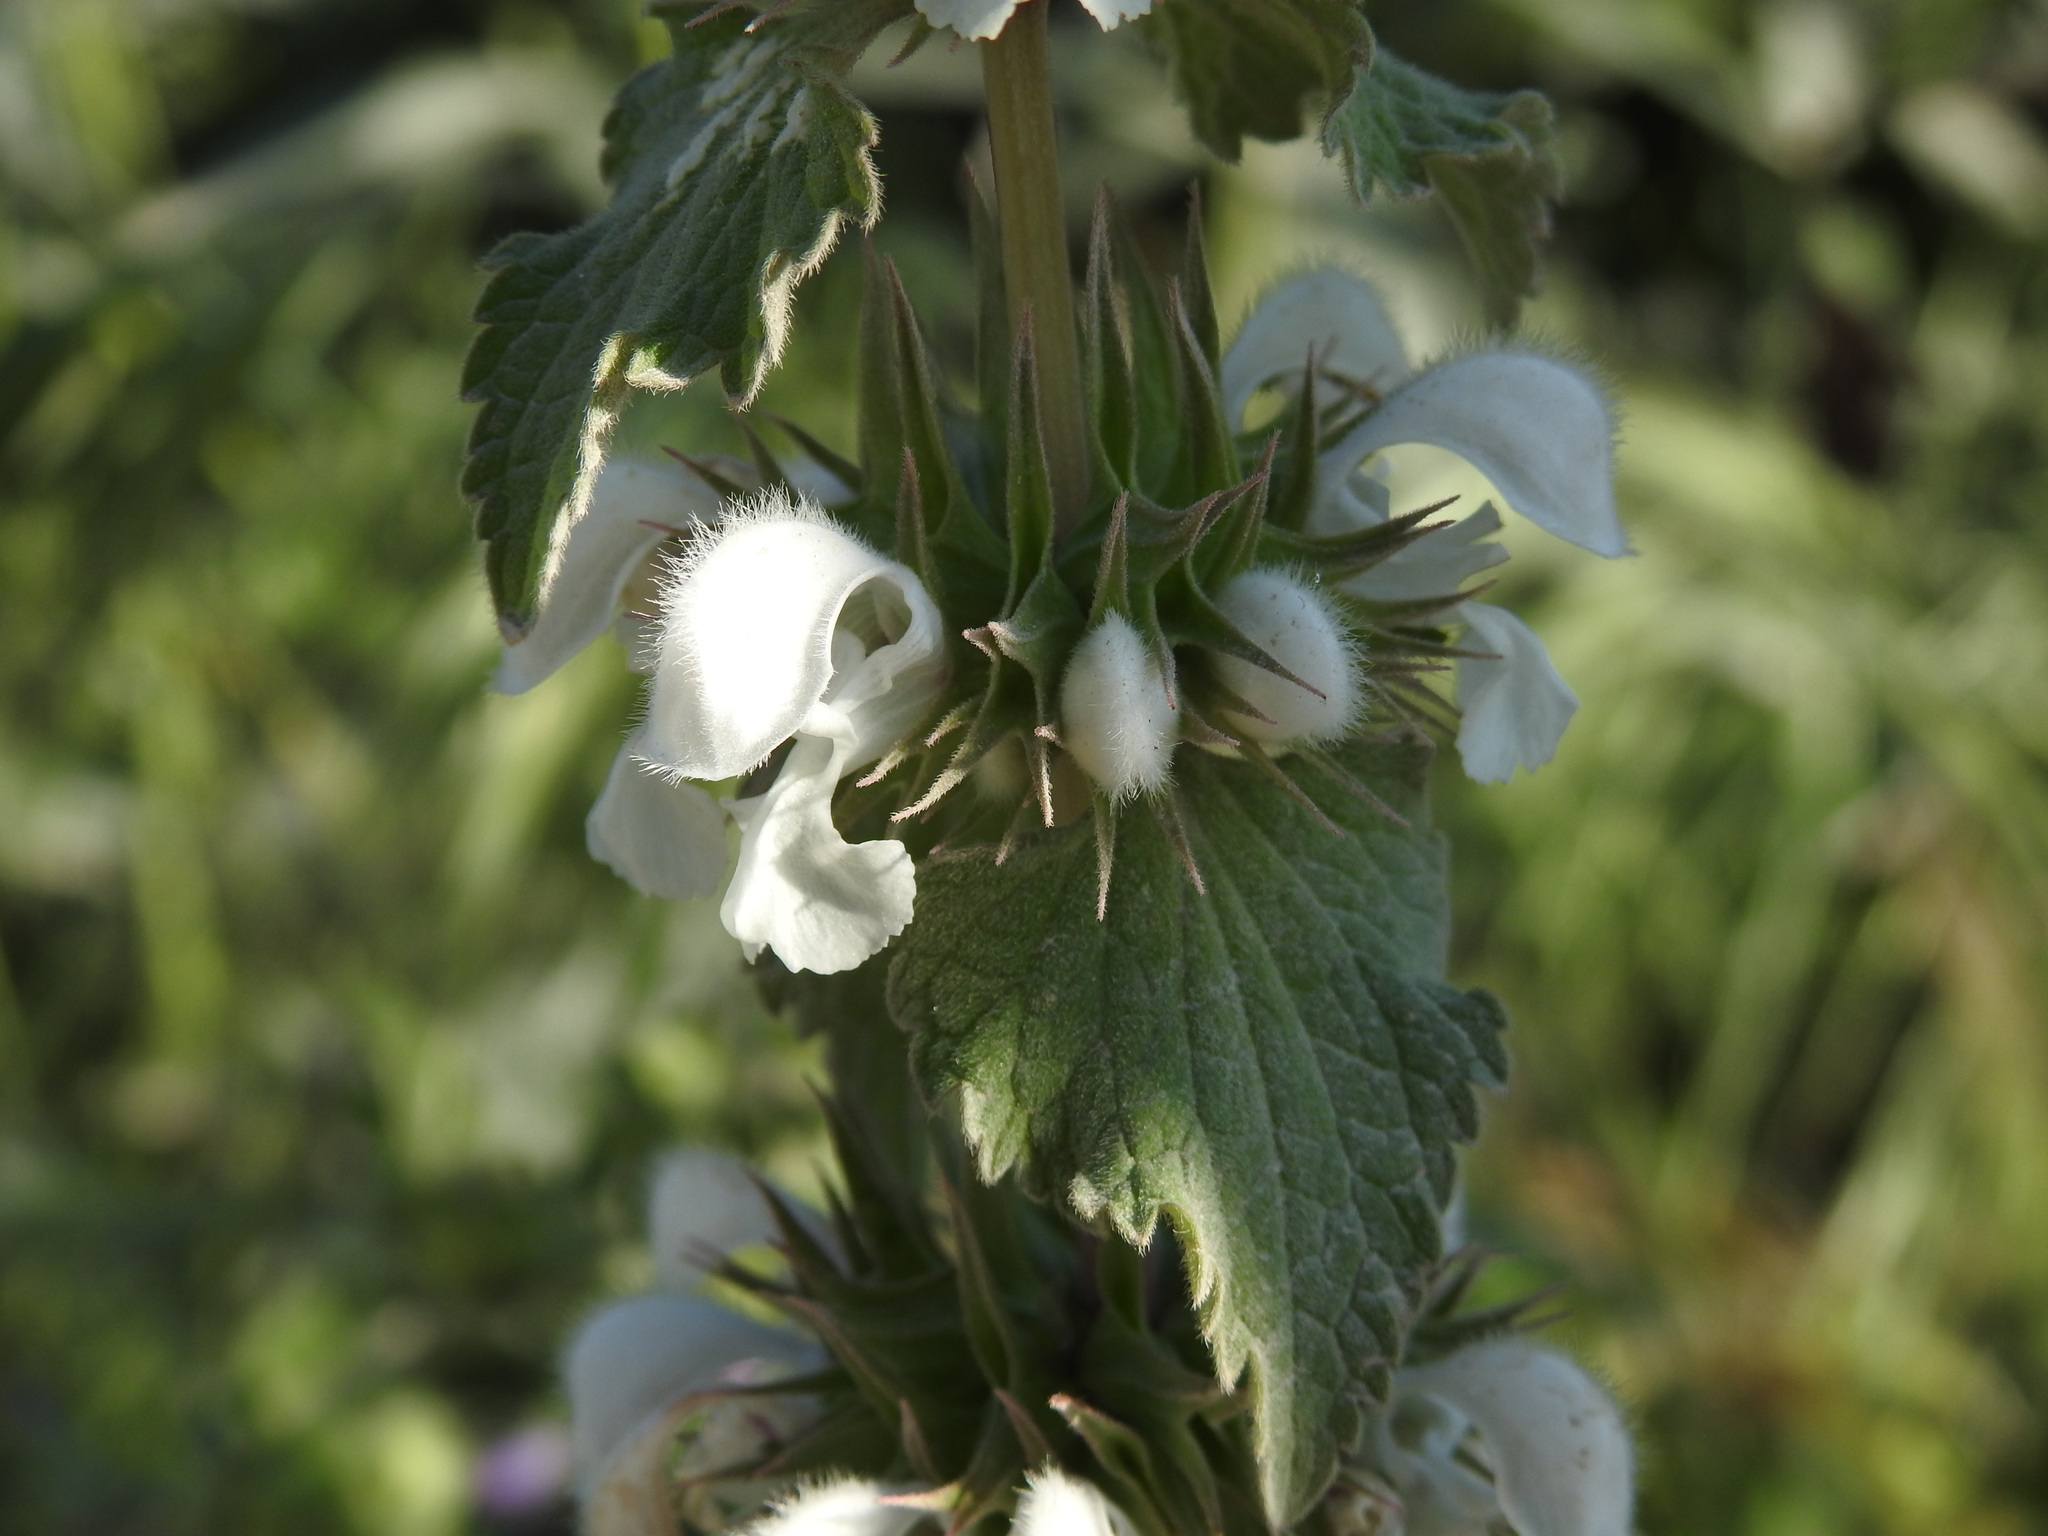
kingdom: Plantae
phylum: Tracheophyta
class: Magnoliopsida
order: Lamiales
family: Lamiaceae
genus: Lamium
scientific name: Lamium moschatum
